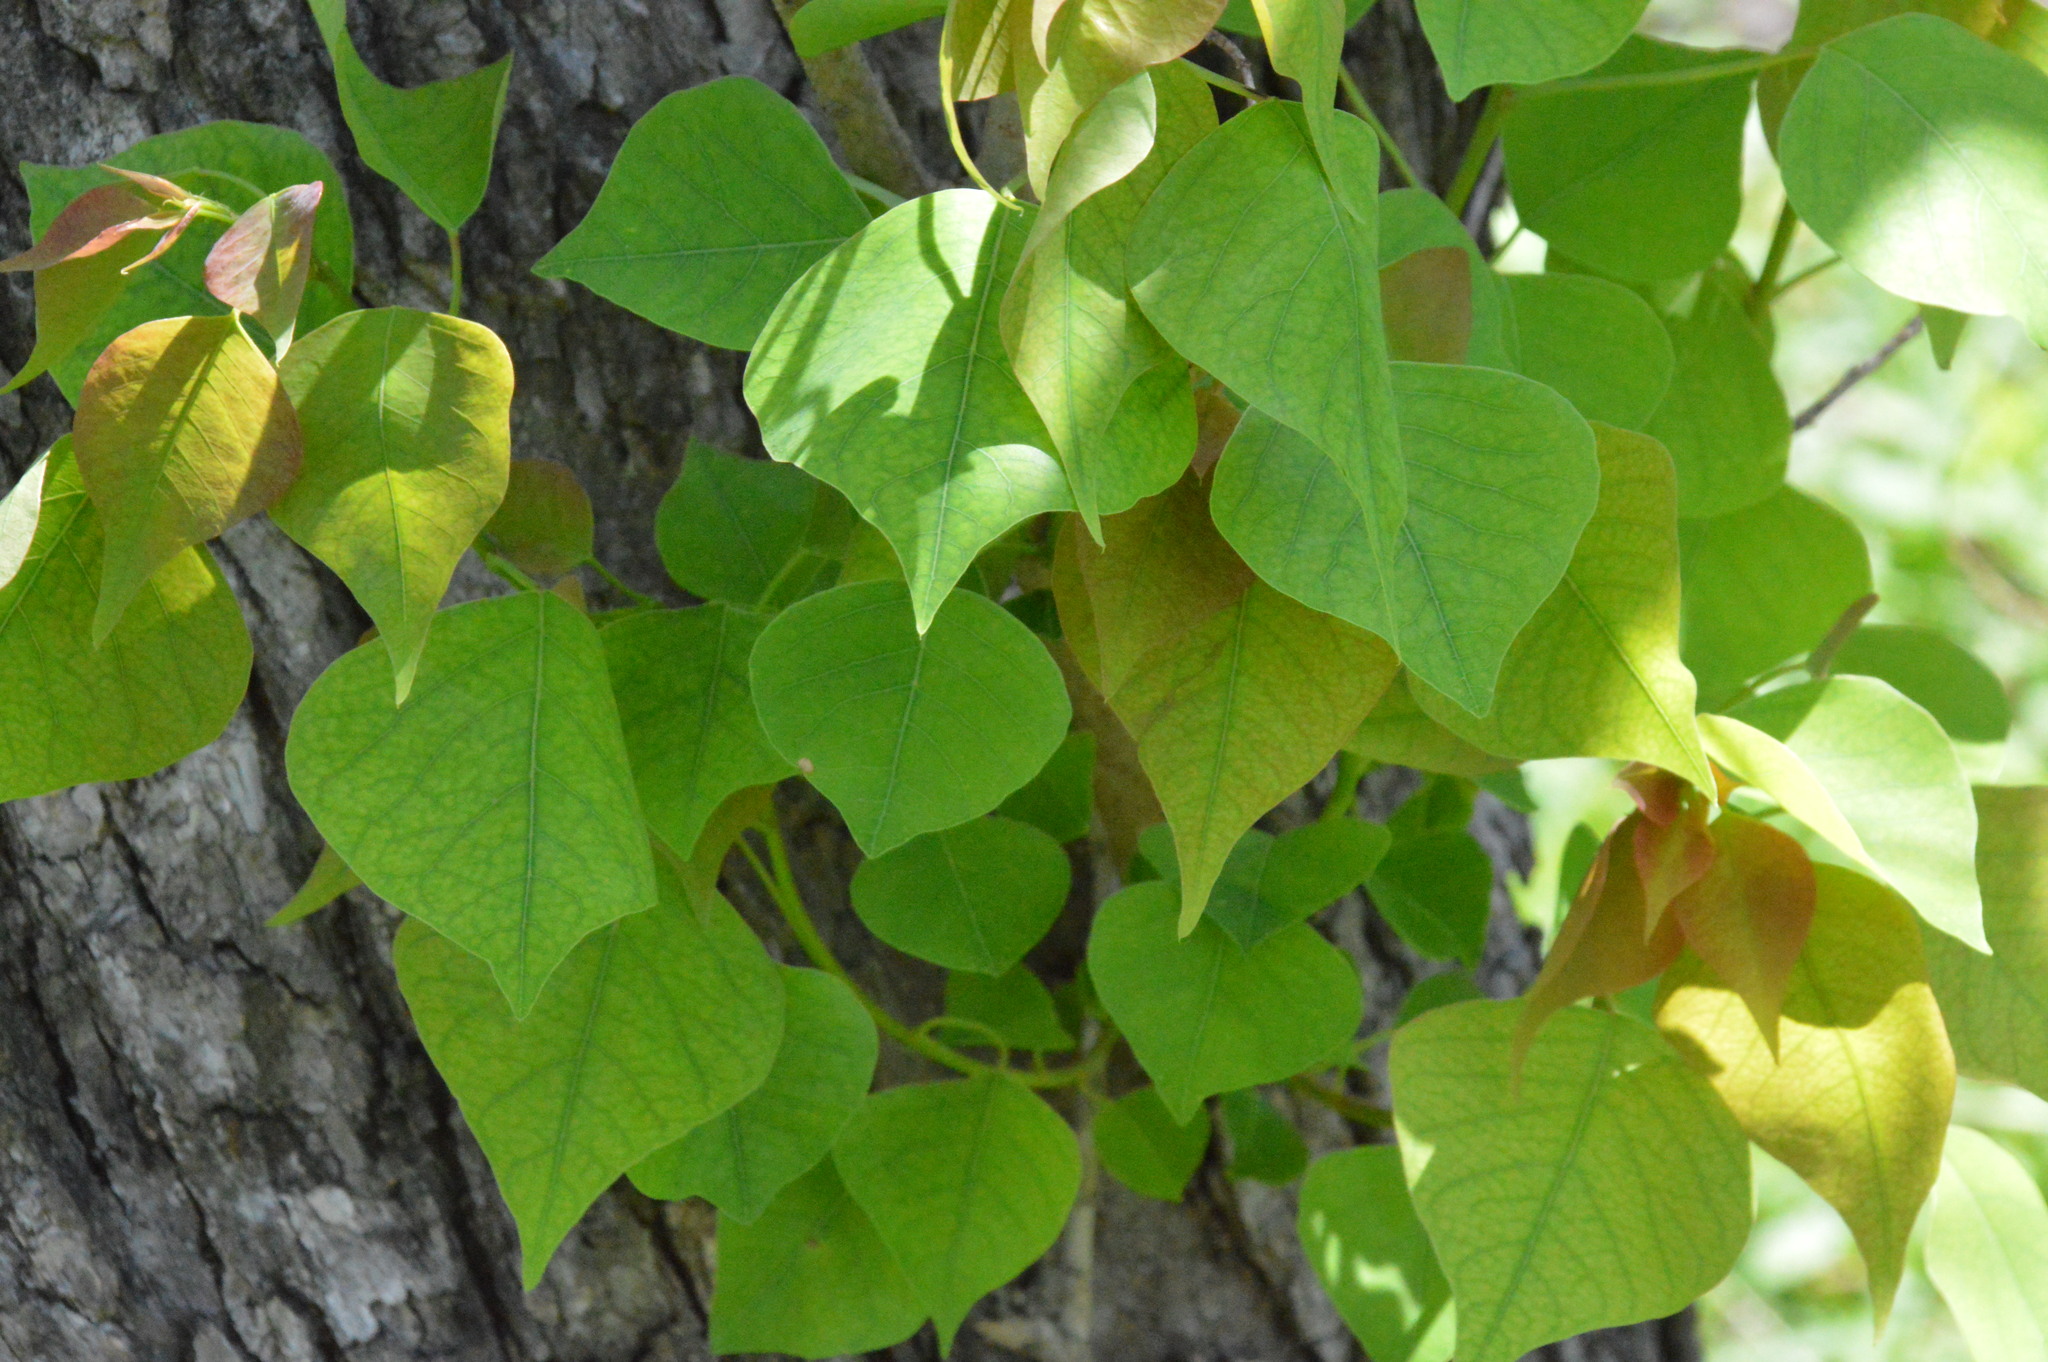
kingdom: Plantae
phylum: Tracheophyta
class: Magnoliopsida
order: Malpighiales
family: Euphorbiaceae
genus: Triadica
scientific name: Triadica sebifera
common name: Chinese tallow
